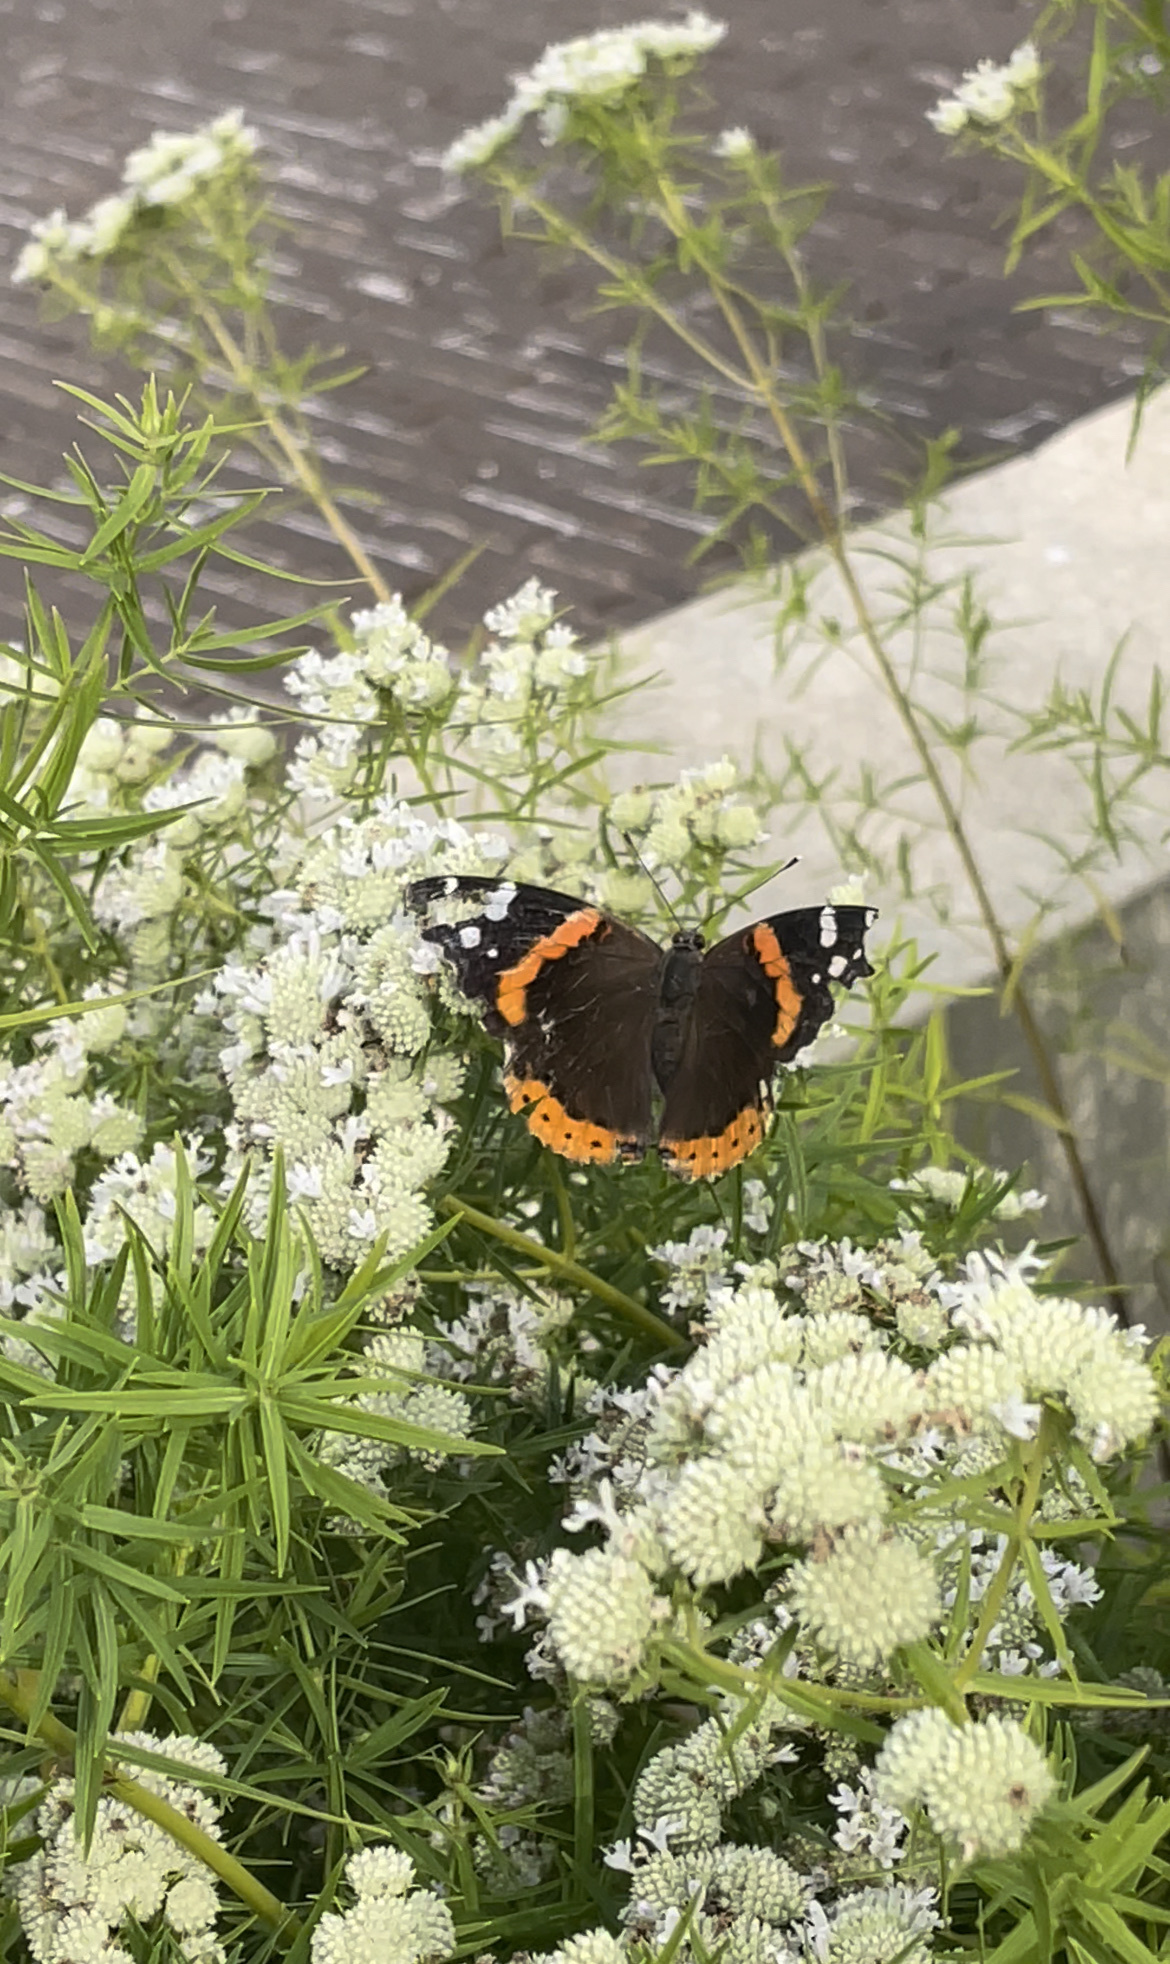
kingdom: Animalia
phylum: Arthropoda
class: Insecta
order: Lepidoptera
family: Nymphalidae
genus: Vanessa
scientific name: Vanessa atalanta
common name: Red admiral
